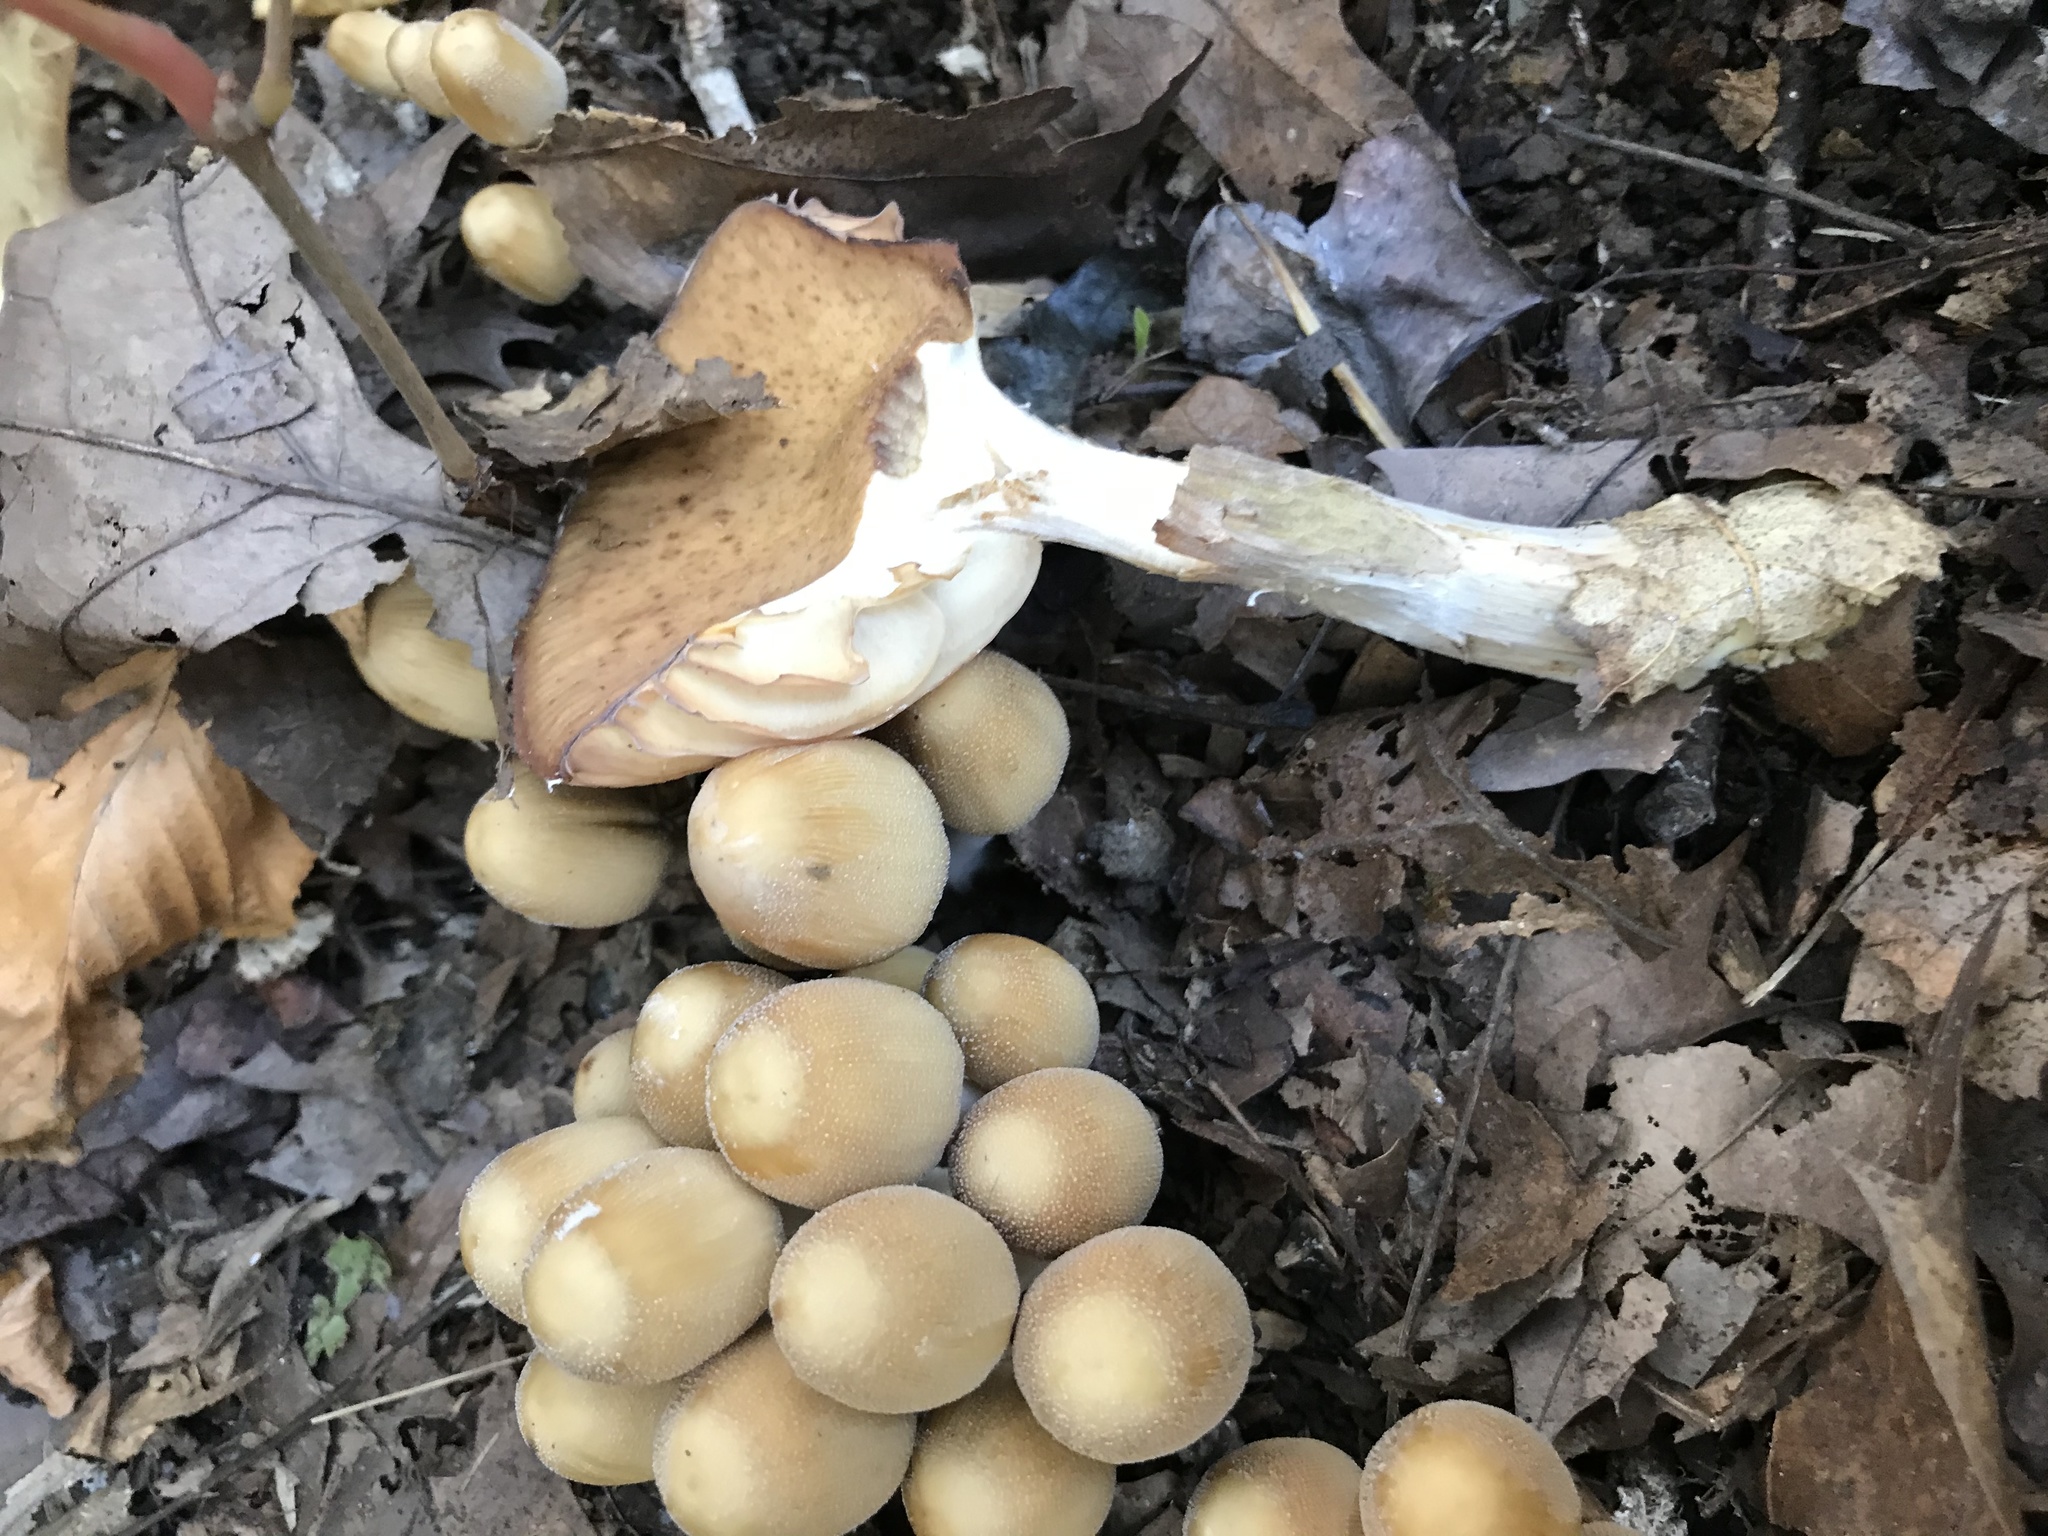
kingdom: Fungi
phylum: Basidiomycota
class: Agaricomycetes
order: Agaricales
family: Psathyrellaceae
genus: Coprinellus
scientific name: Coprinellus micaceus
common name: Glistening ink-cap
